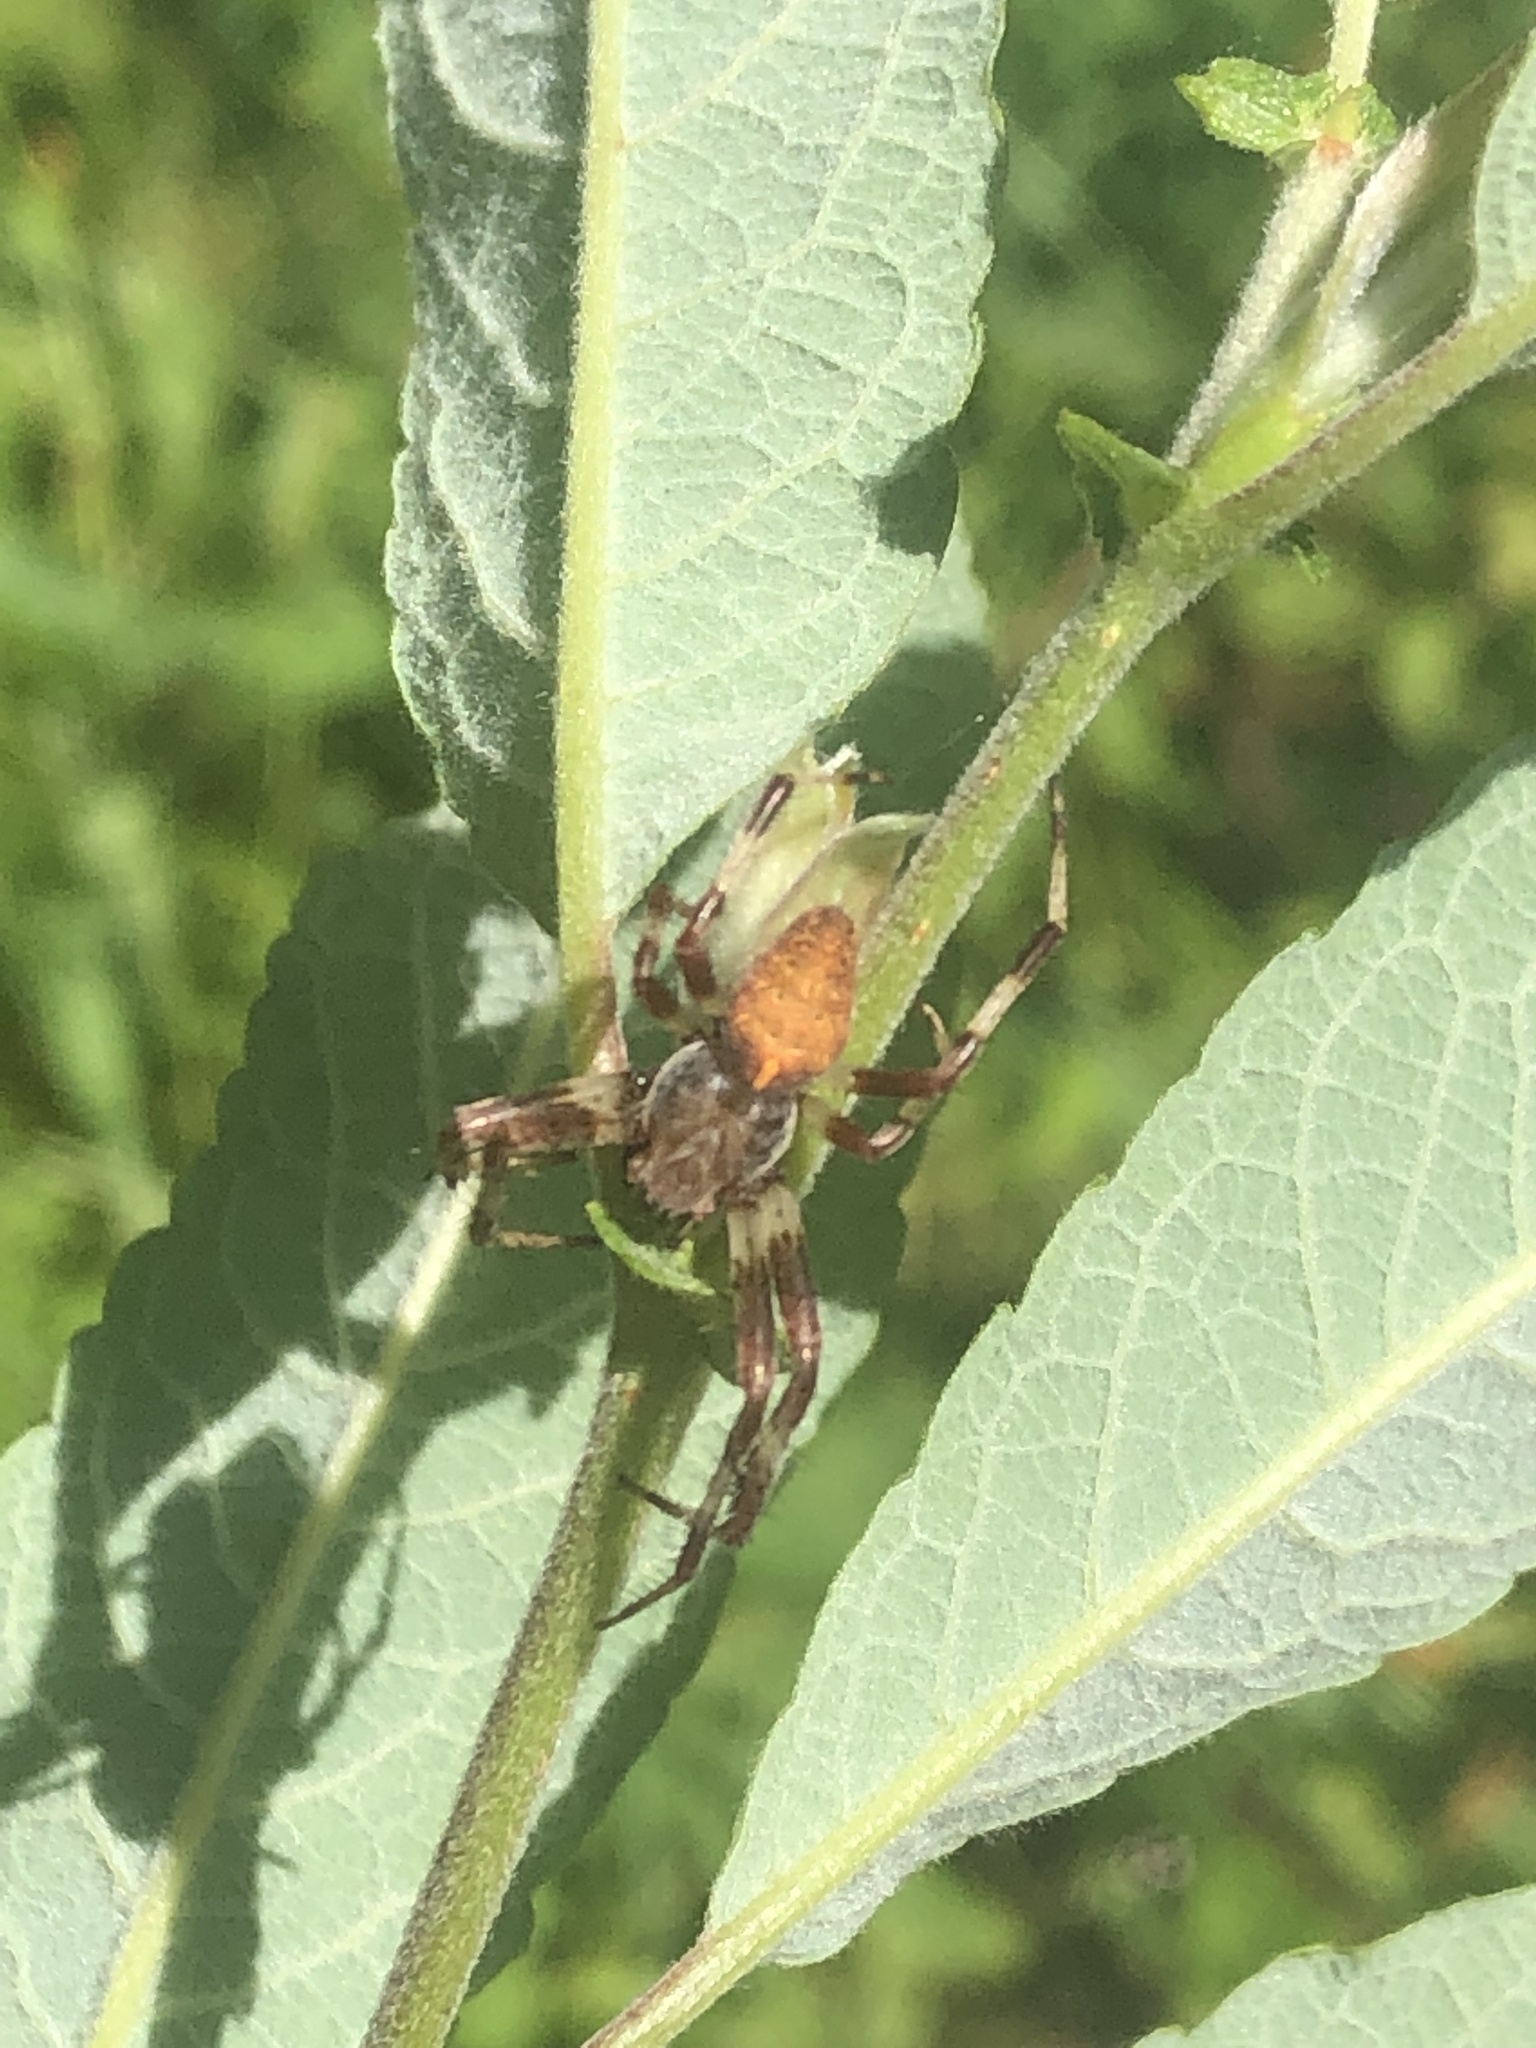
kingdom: Animalia
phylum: Arthropoda
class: Arachnida
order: Araneae
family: Araneidae
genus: Araneus
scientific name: Araneus marmoreus
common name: Marbled orbweaver
